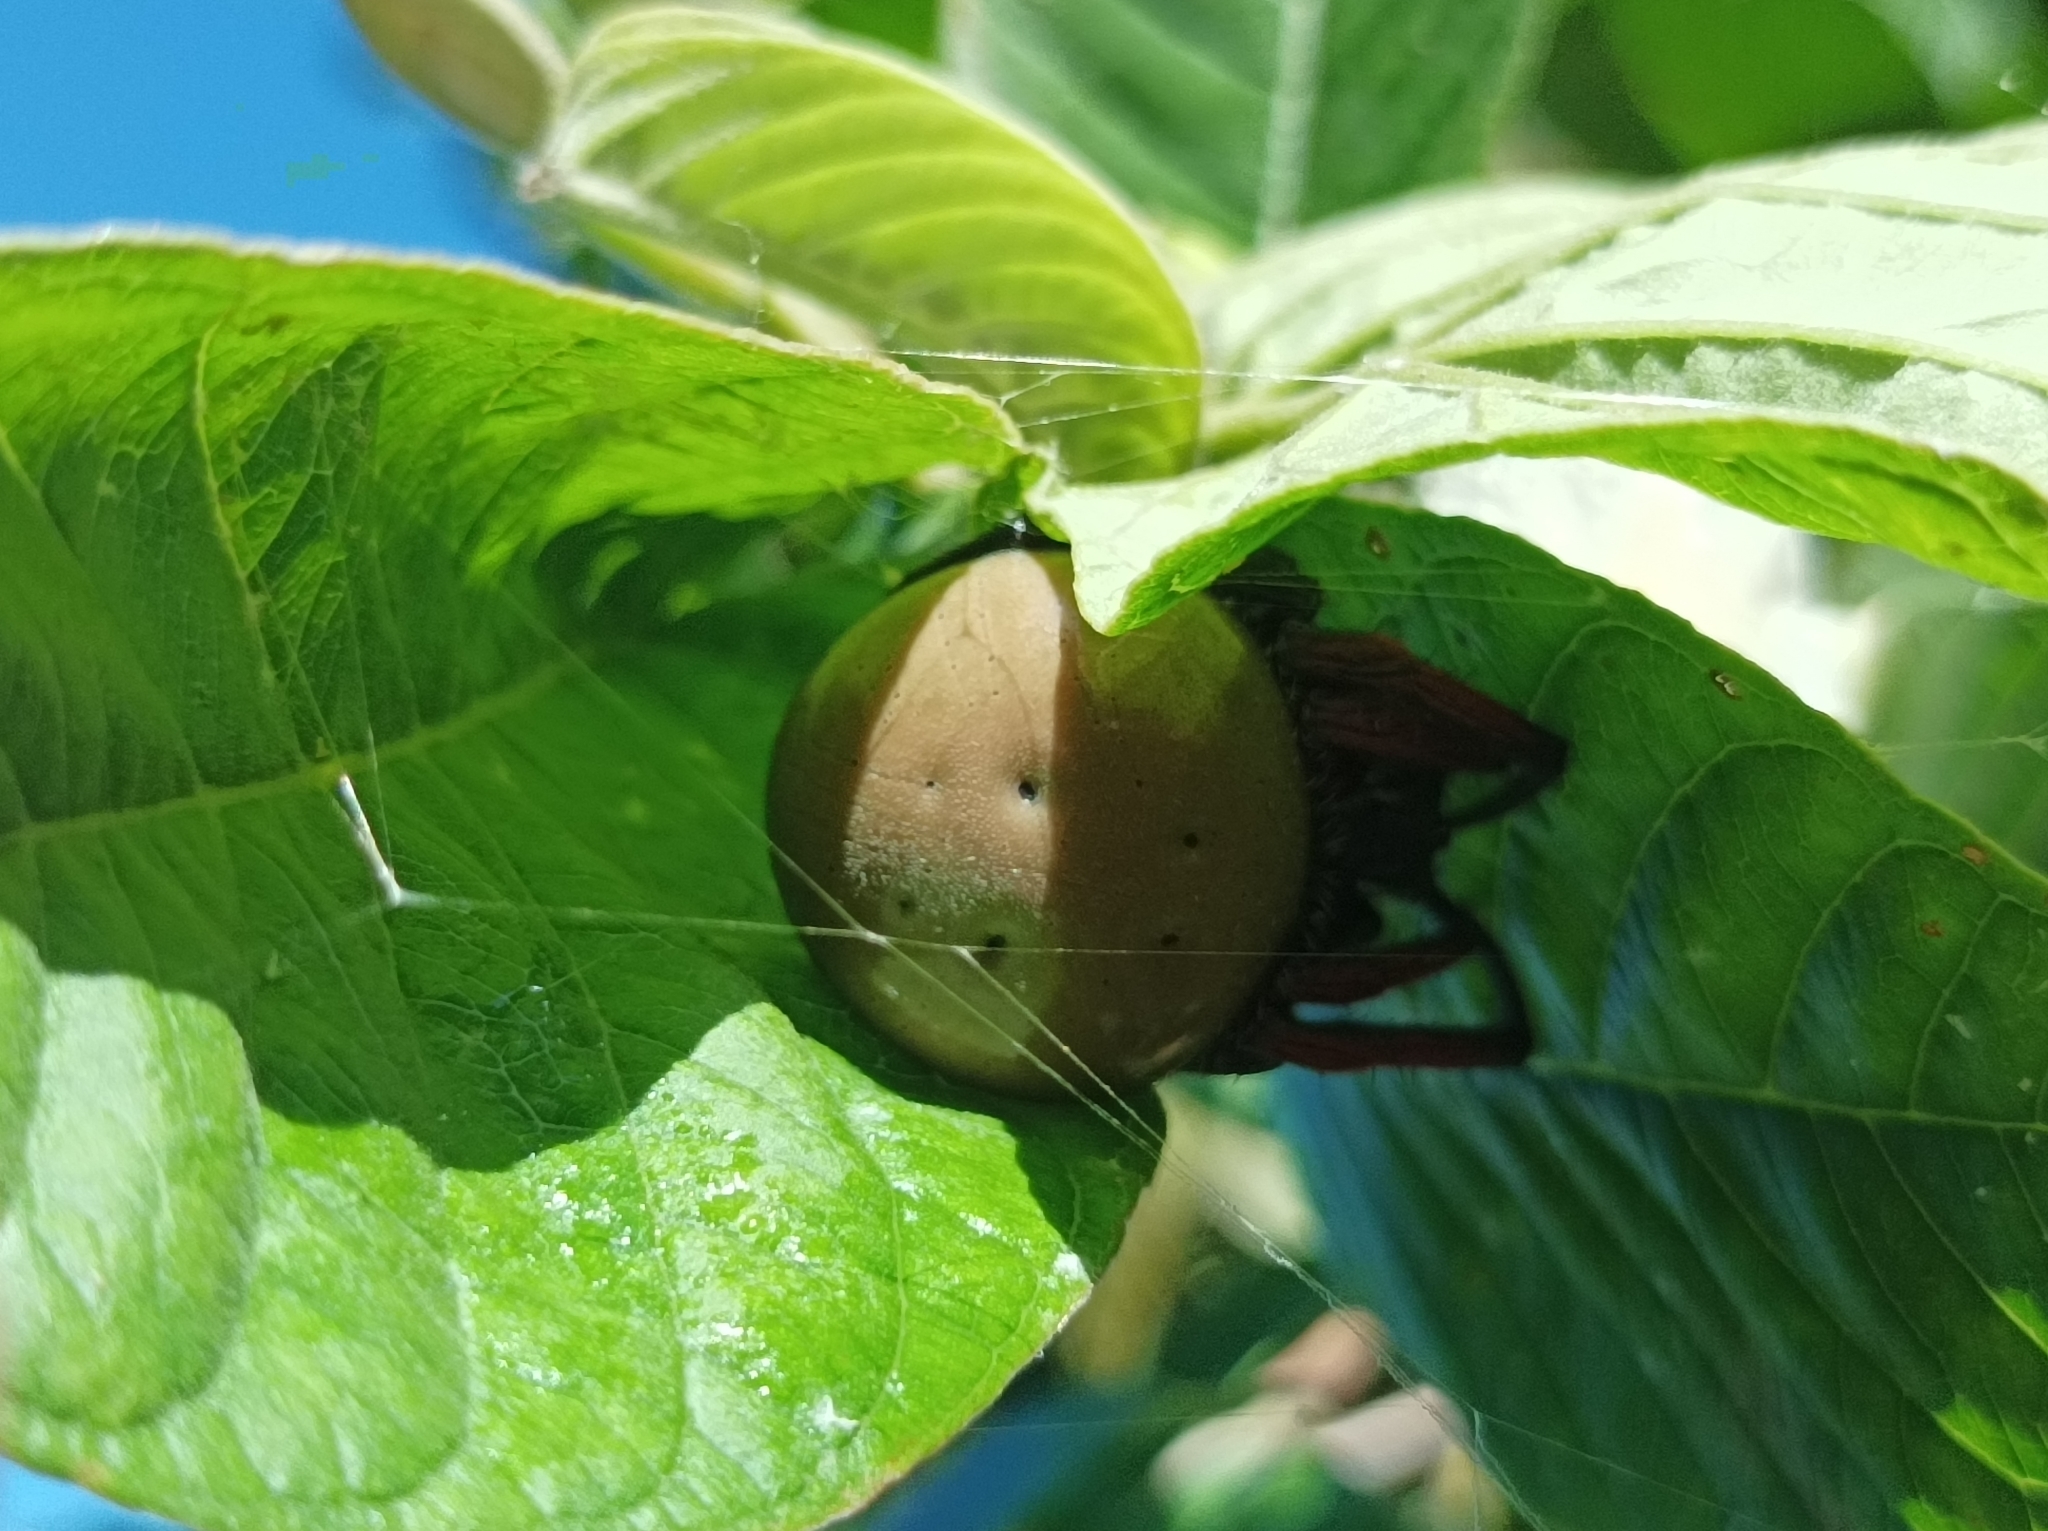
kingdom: Animalia
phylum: Arthropoda
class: Arachnida
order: Araneae
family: Araneidae
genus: Hortophora
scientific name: Hortophora capitalis
